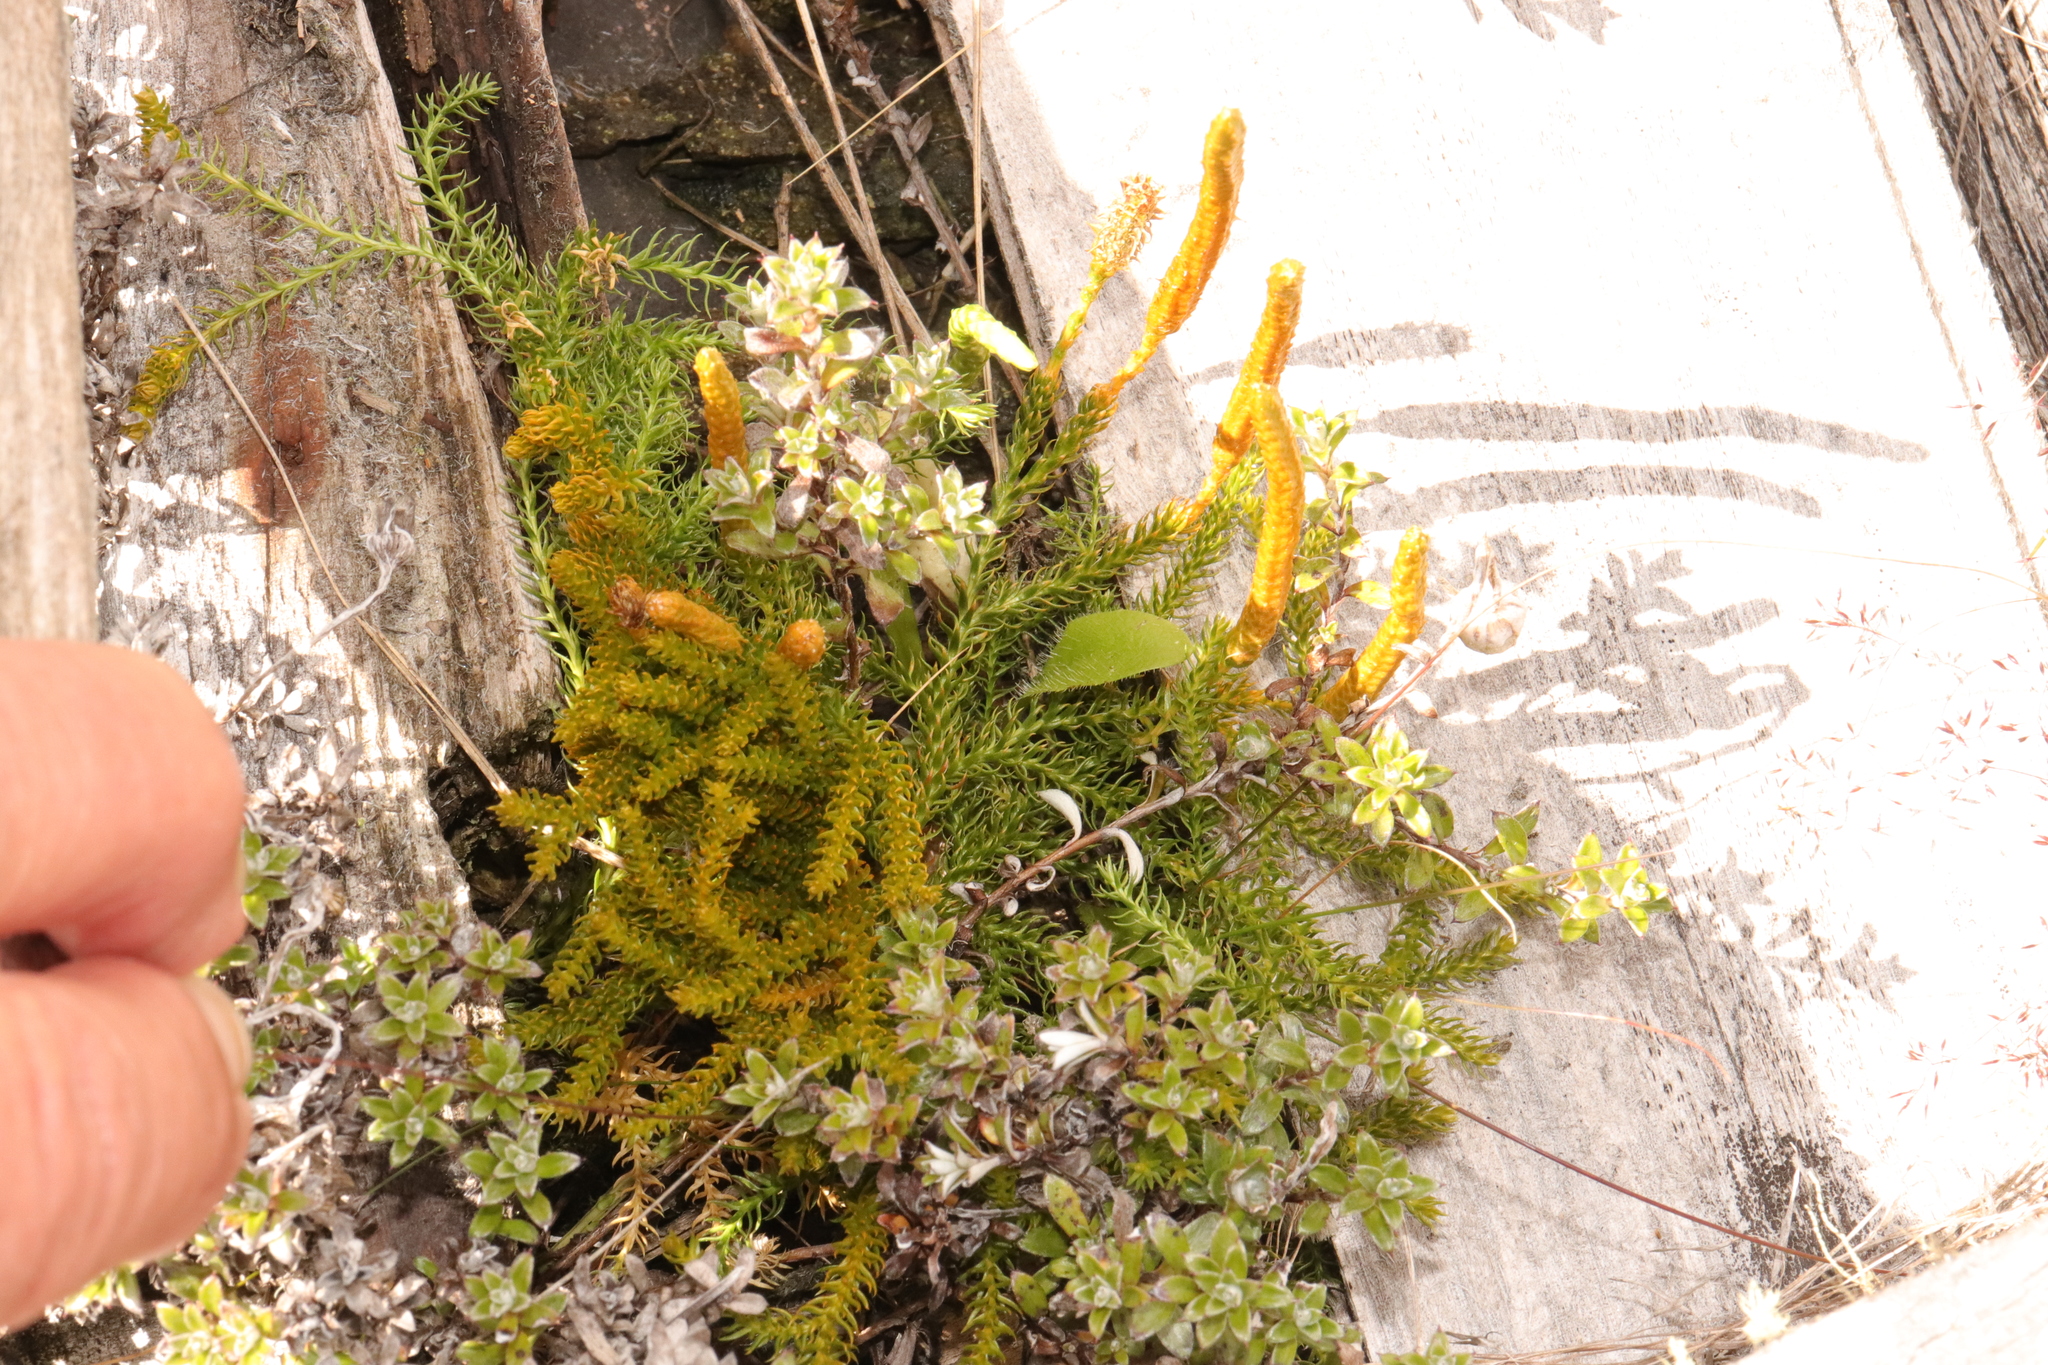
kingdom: Plantae
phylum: Tracheophyta
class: Lycopodiopsida
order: Lycopodiales
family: Lycopodiaceae
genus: Austrolycopodium
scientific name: Austrolycopodium fastigiatum
